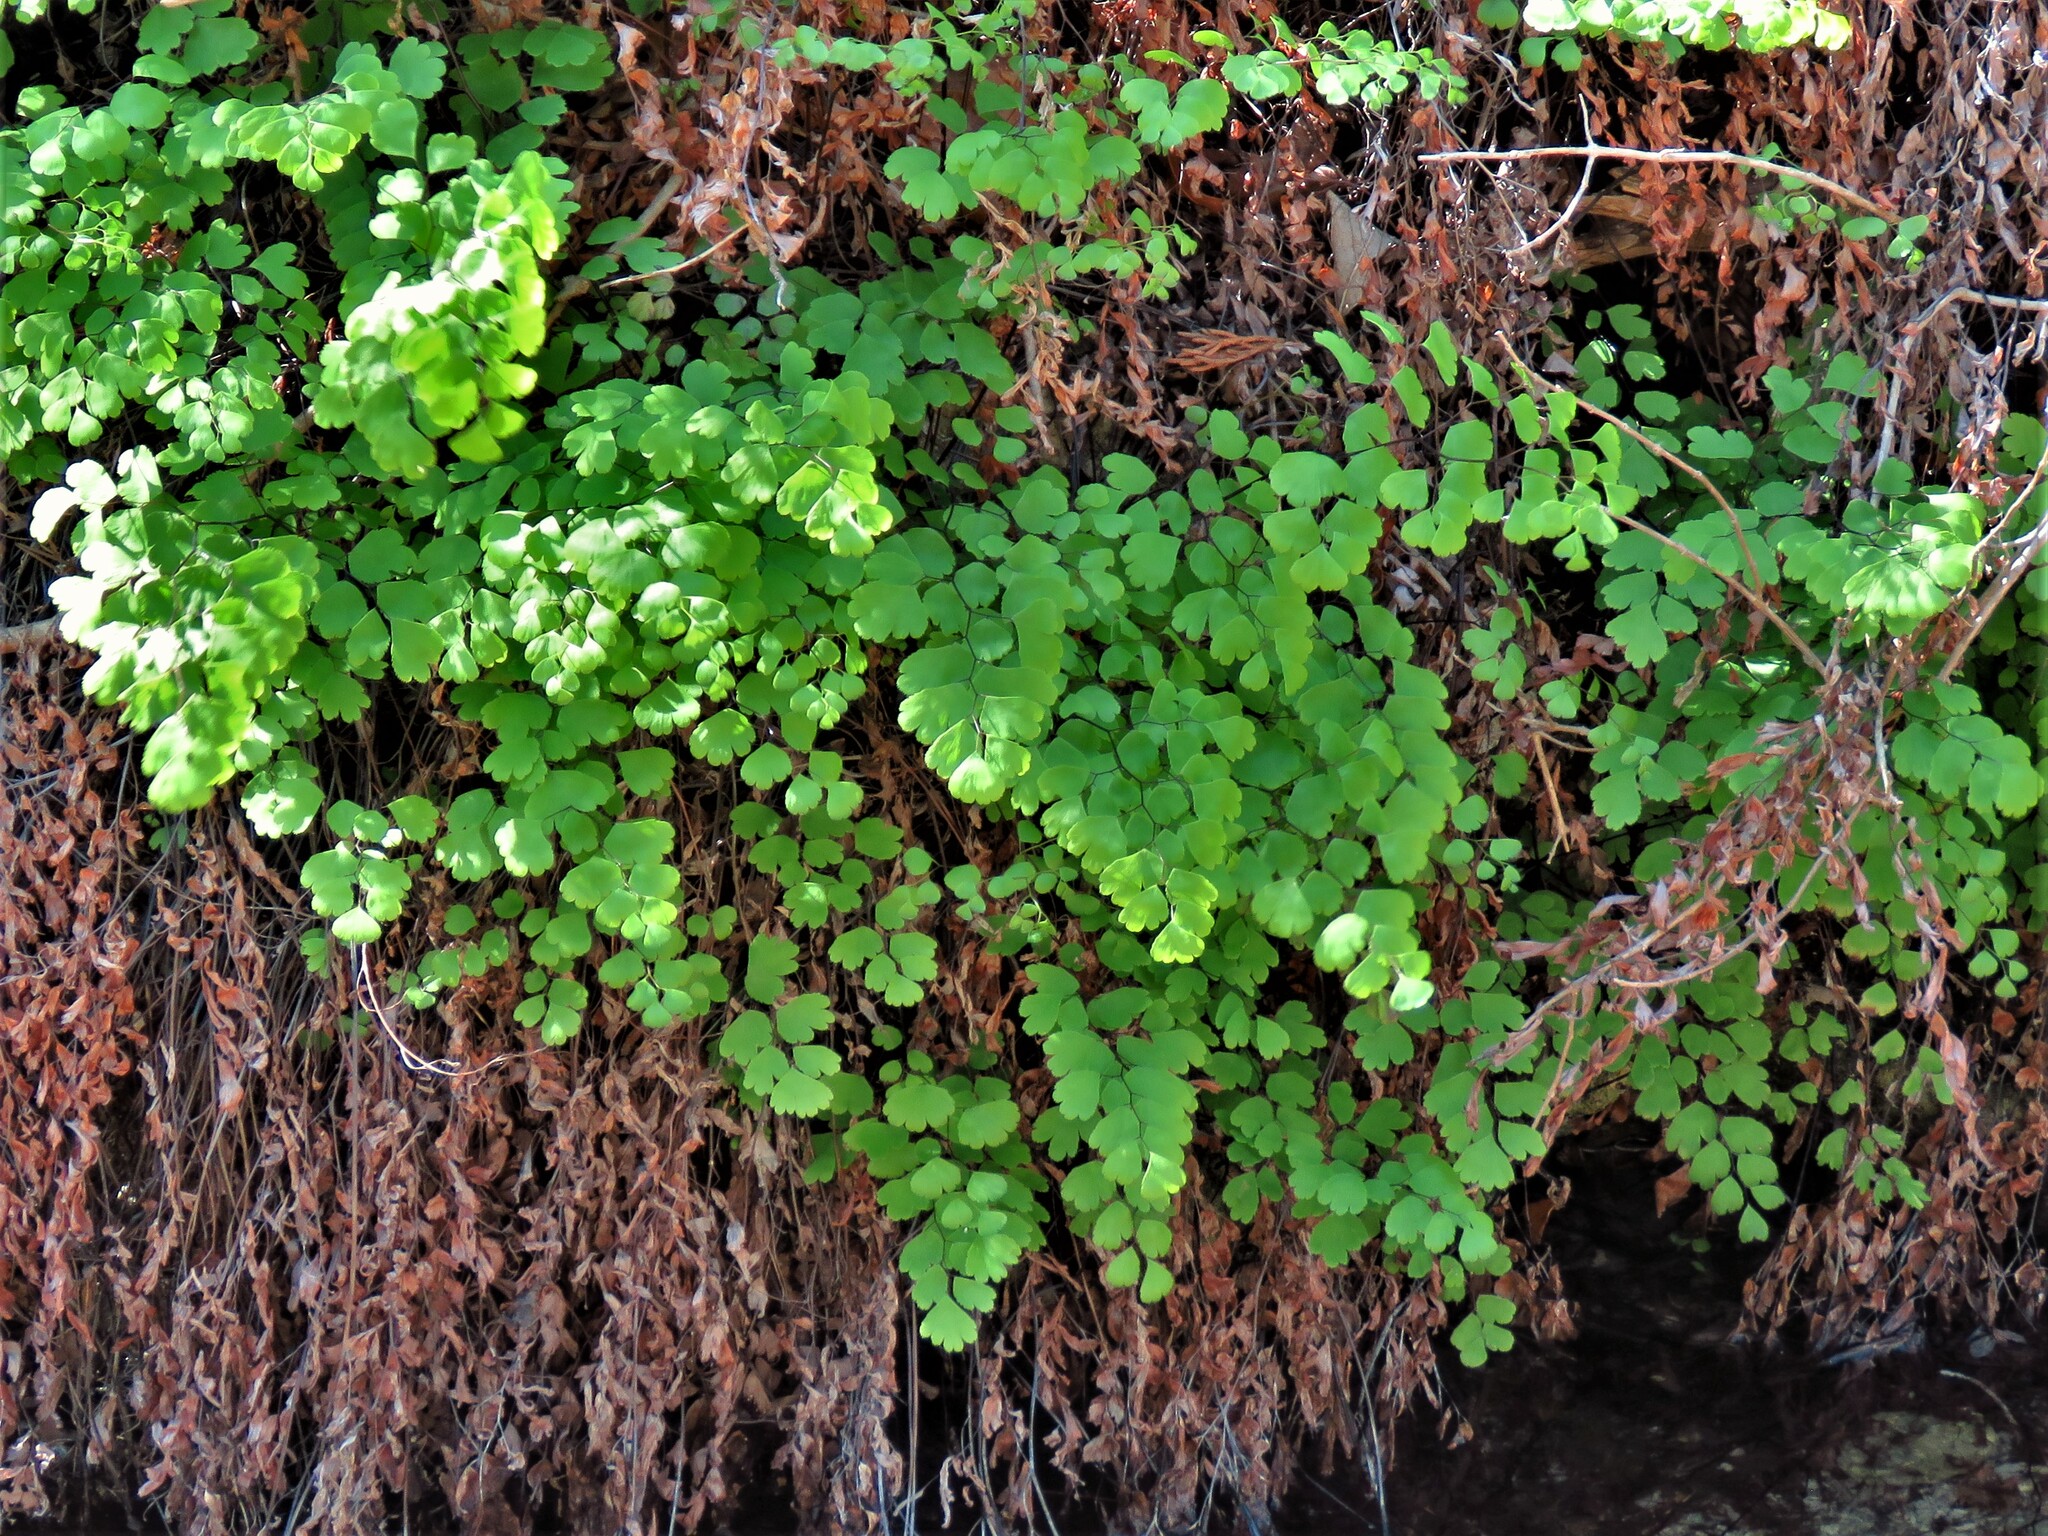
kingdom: Plantae
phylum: Tracheophyta
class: Polypodiopsida
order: Polypodiales
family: Pteridaceae
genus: Adiantum
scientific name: Adiantum capillus-veneris
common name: Maidenhair fern
